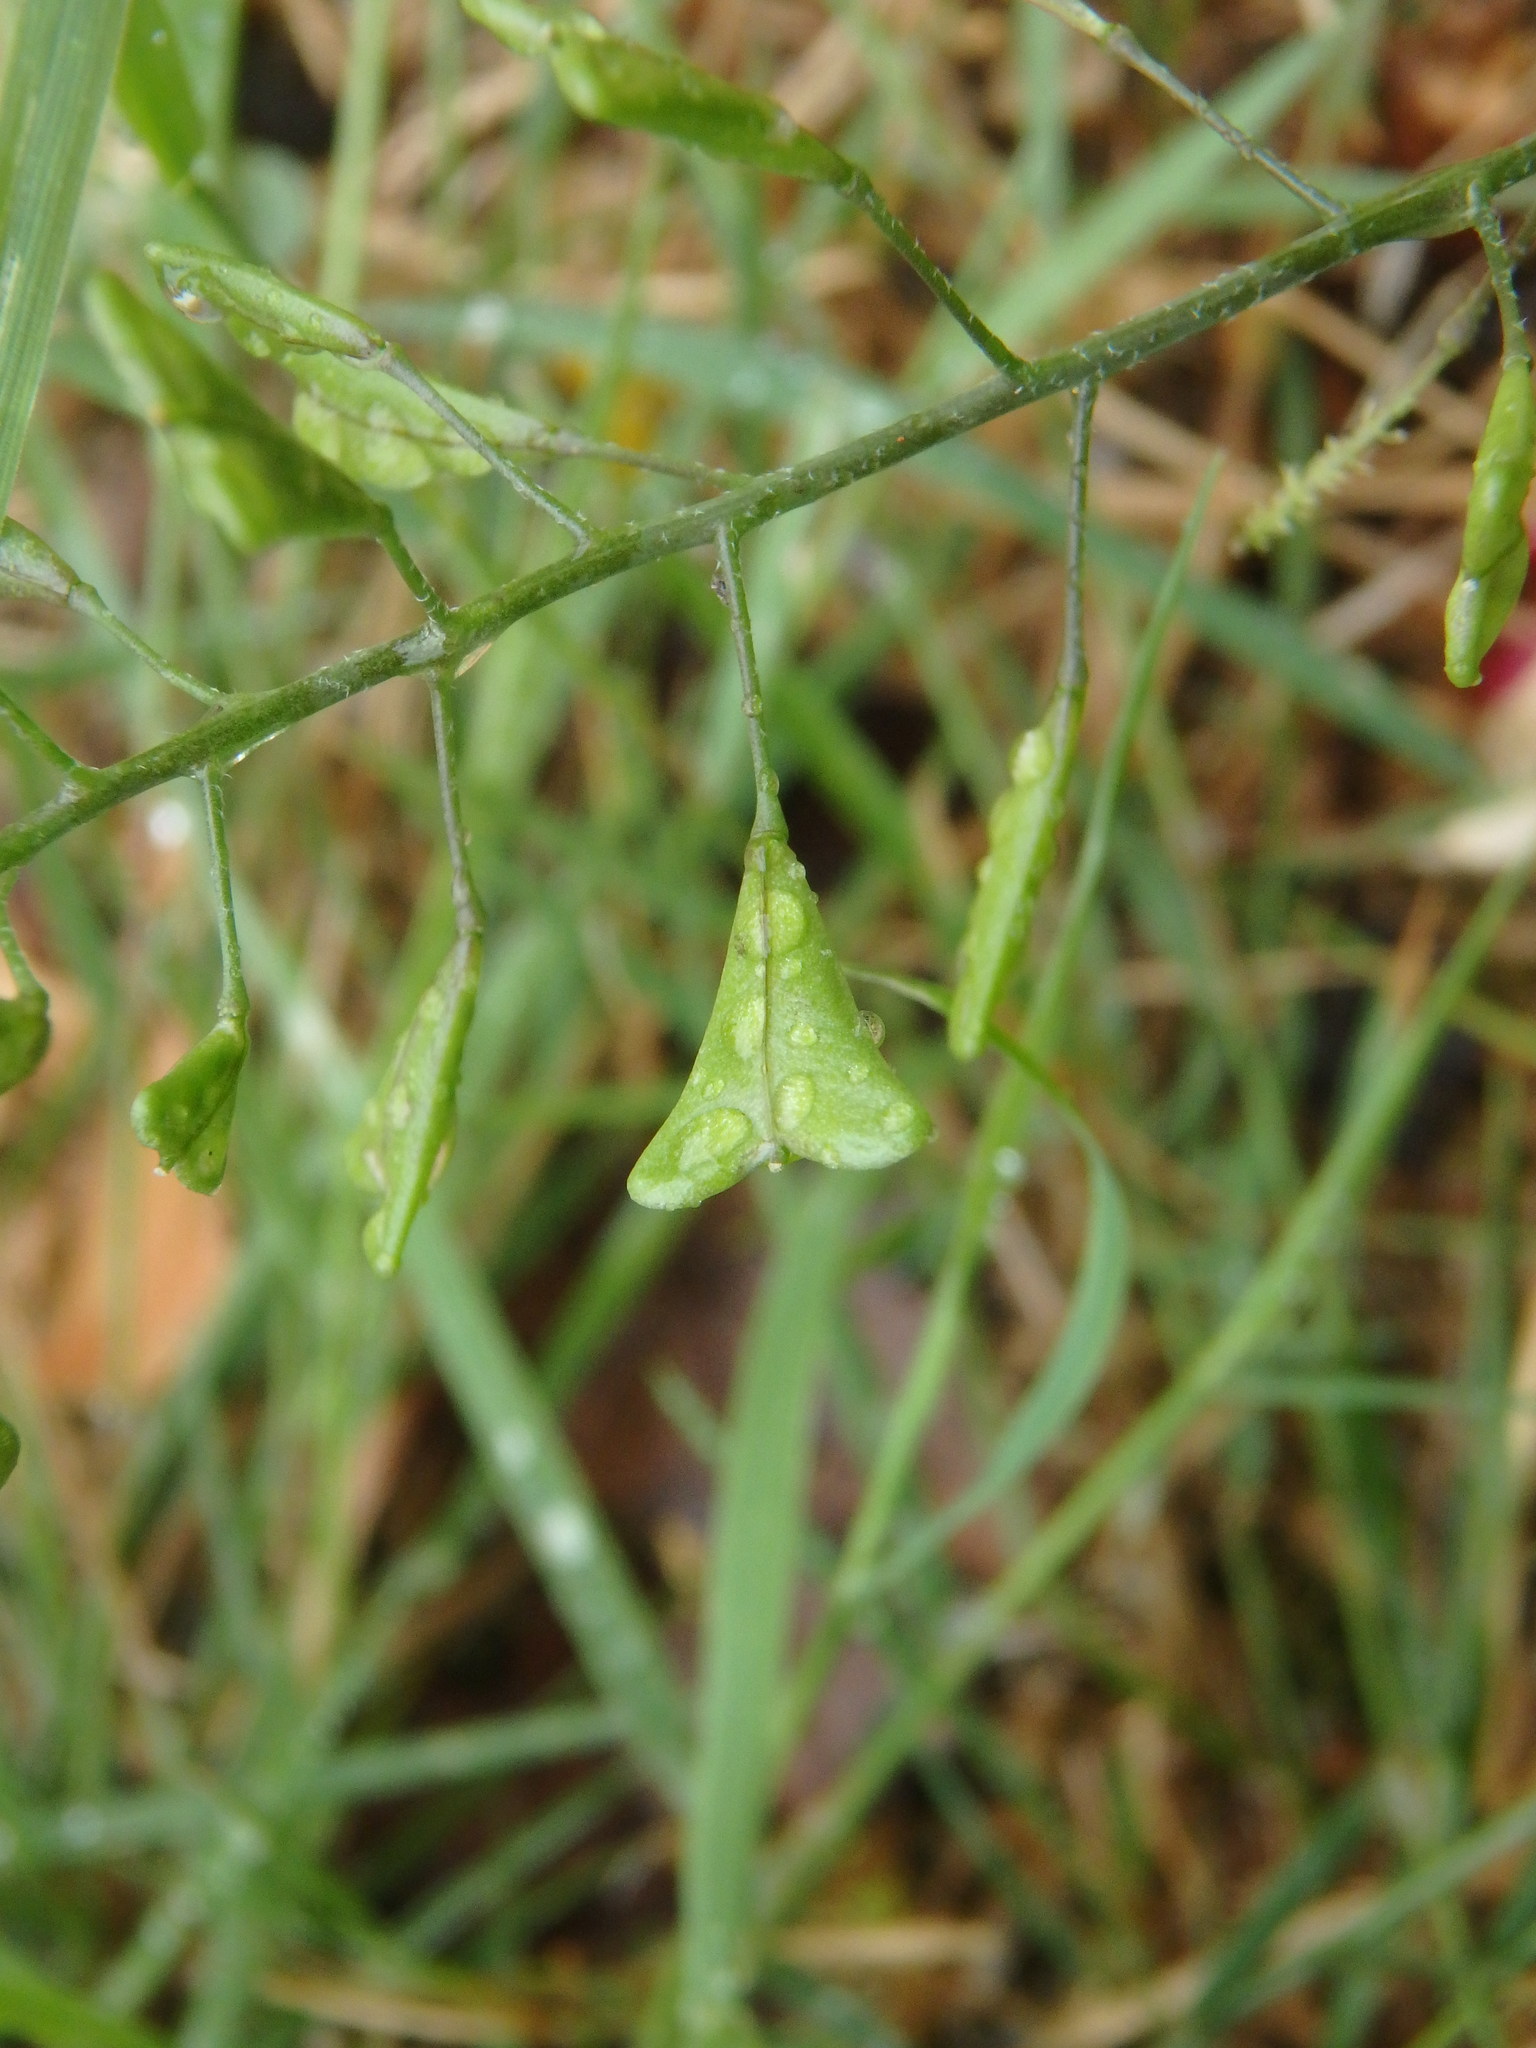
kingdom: Plantae
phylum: Tracheophyta
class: Magnoliopsida
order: Brassicales
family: Brassicaceae
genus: Capsella
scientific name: Capsella bursa-pastoris
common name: Shepherd's purse
